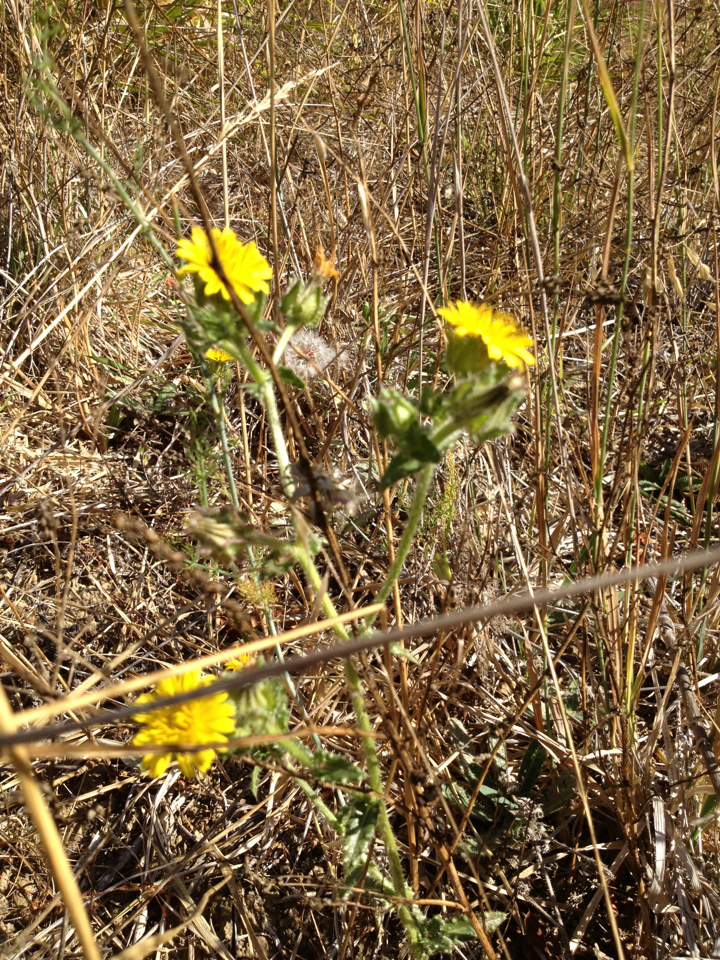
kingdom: Plantae
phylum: Tracheophyta
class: Magnoliopsida
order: Asterales
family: Asteraceae
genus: Helminthotheca
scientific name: Helminthotheca echioides
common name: Ox-tongue
